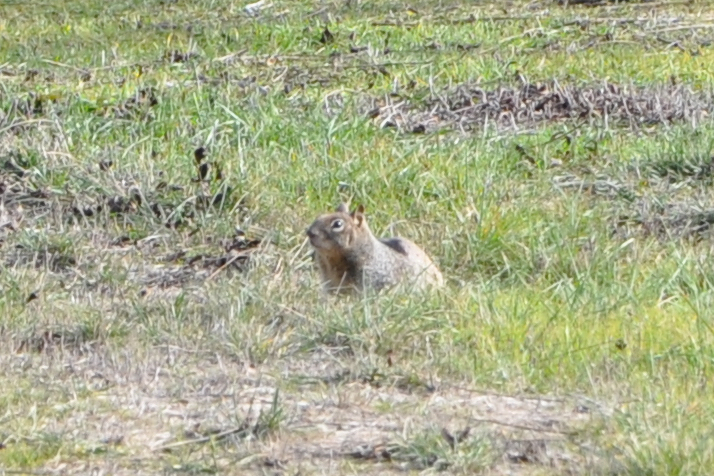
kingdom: Animalia
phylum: Chordata
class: Mammalia
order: Rodentia
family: Sciuridae
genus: Otospermophilus
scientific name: Otospermophilus beecheyi
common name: California ground squirrel
